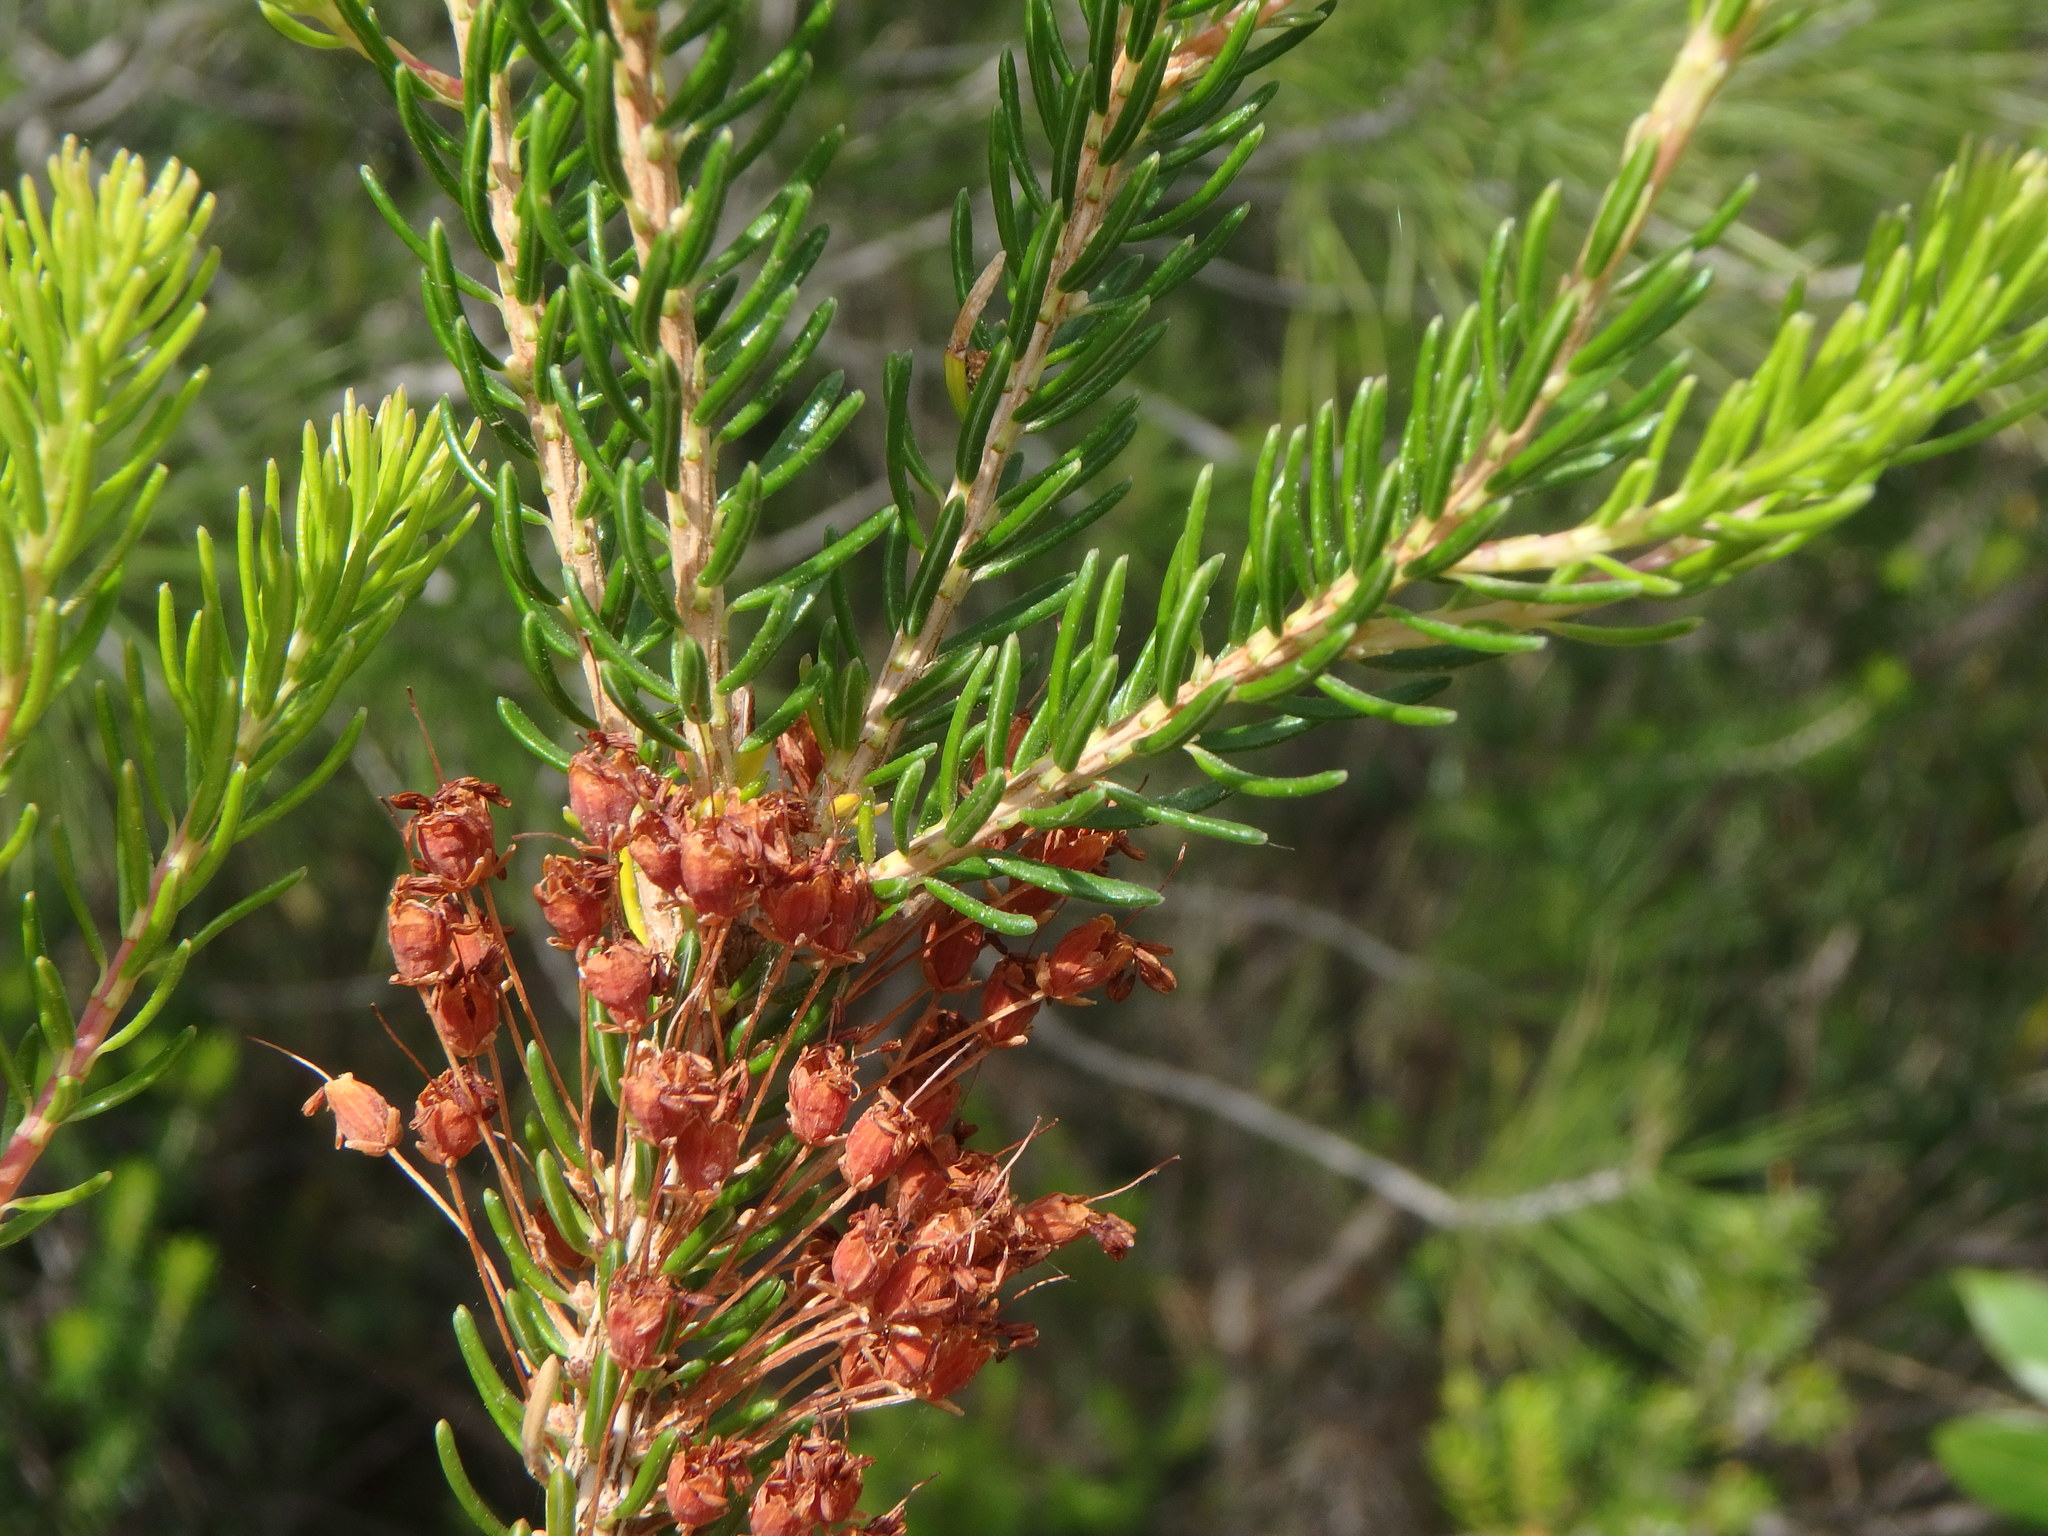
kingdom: Plantae
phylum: Tracheophyta
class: Magnoliopsida
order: Ericales
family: Ericaceae
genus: Erica
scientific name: Erica multiflora
